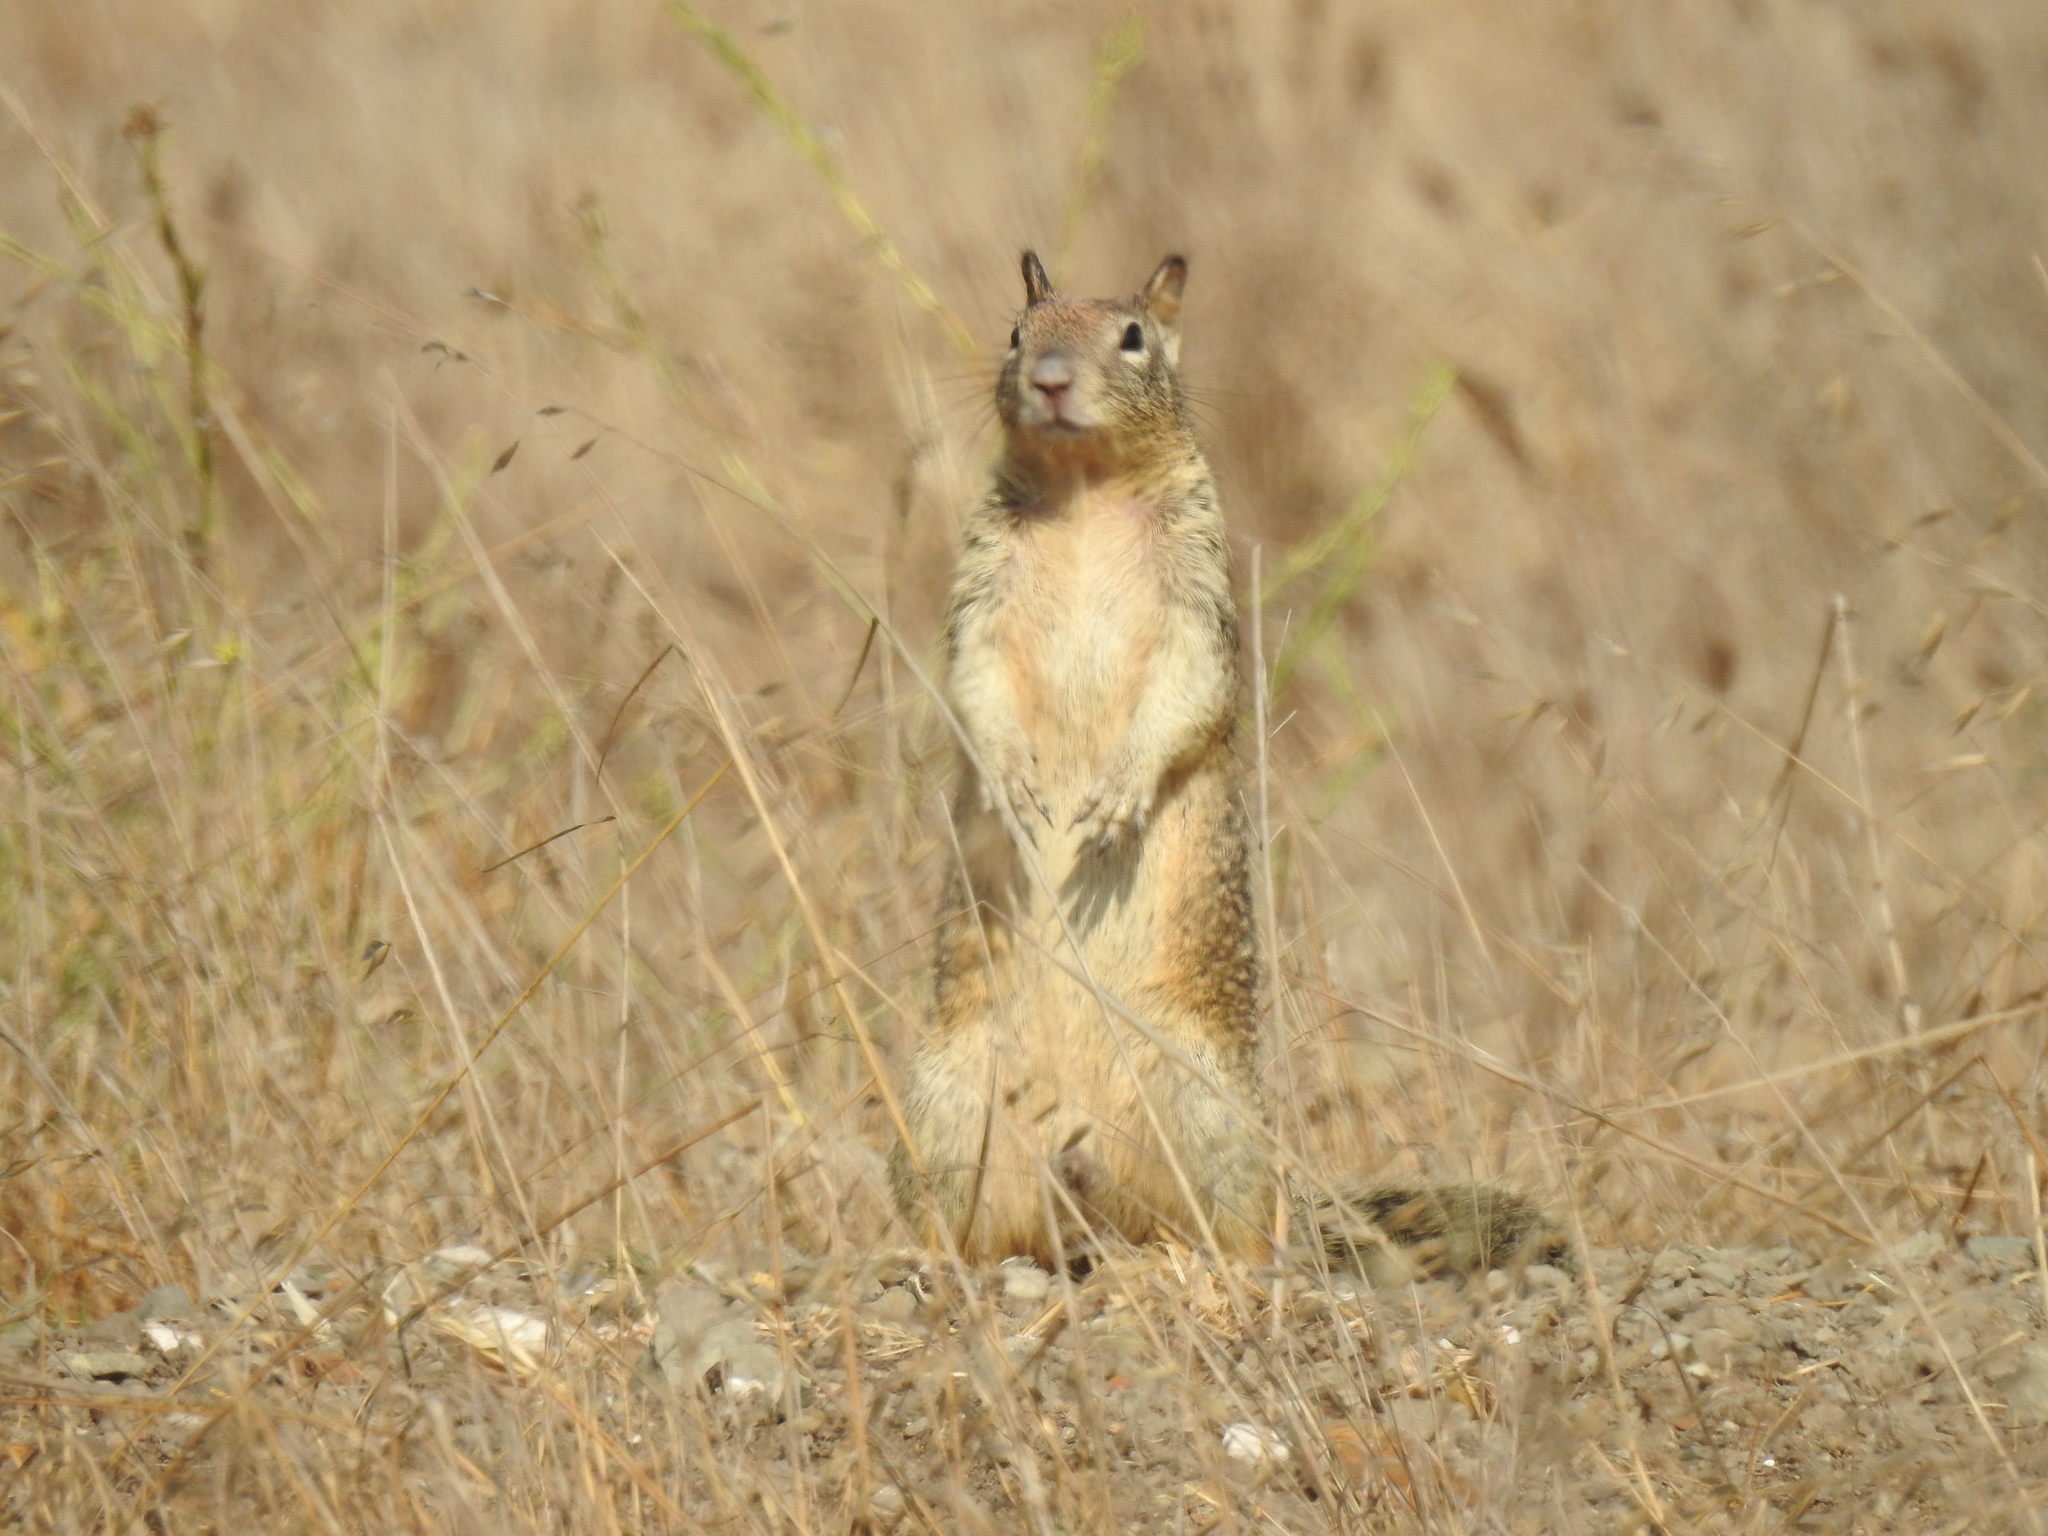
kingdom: Animalia
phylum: Chordata
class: Mammalia
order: Rodentia
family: Sciuridae
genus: Otospermophilus
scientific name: Otospermophilus beecheyi
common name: California ground squirrel
